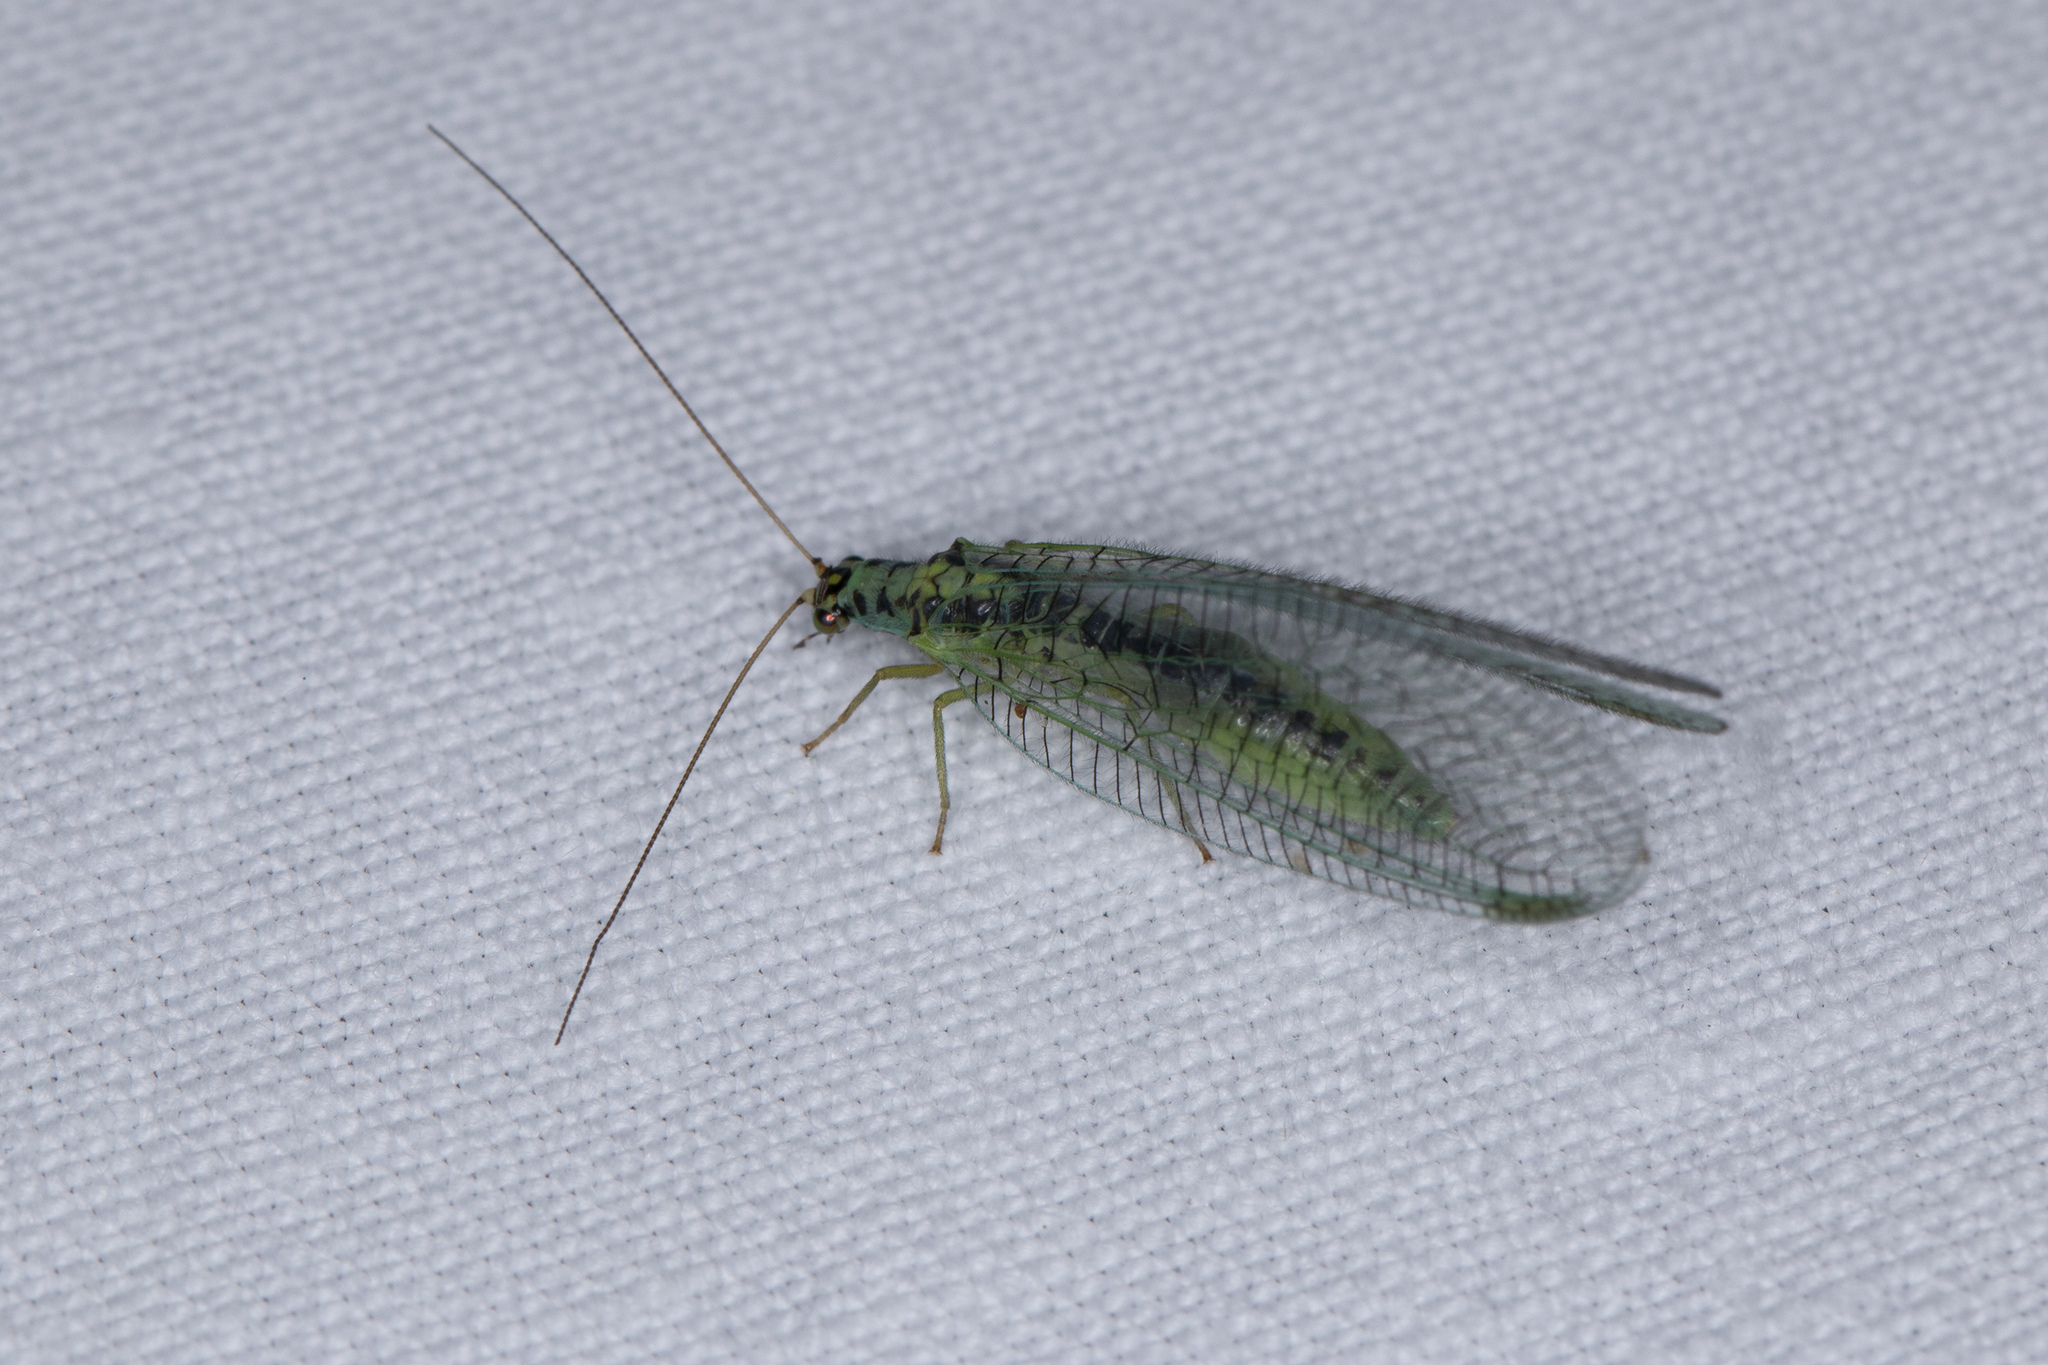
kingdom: Animalia
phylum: Arthropoda
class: Insecta
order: Neuroptera
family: Chrysopidae
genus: Chrysopa
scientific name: Chrysopa perla
